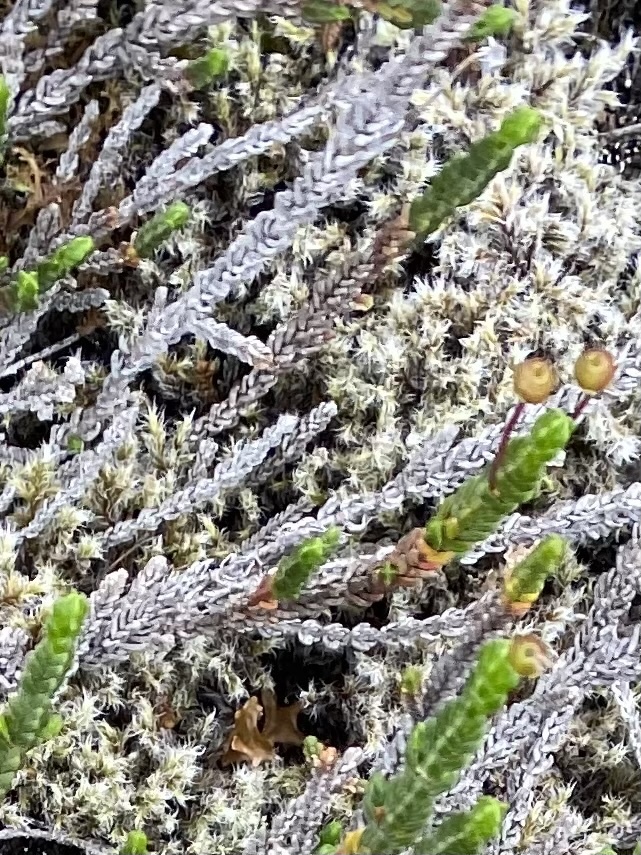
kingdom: Plantae
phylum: Bryophyta
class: Bryopsida
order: Grimmiales
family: Grimmiaceae
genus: Racomitrium
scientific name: Racomitrium lanuginosum
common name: Hoary rock moss
